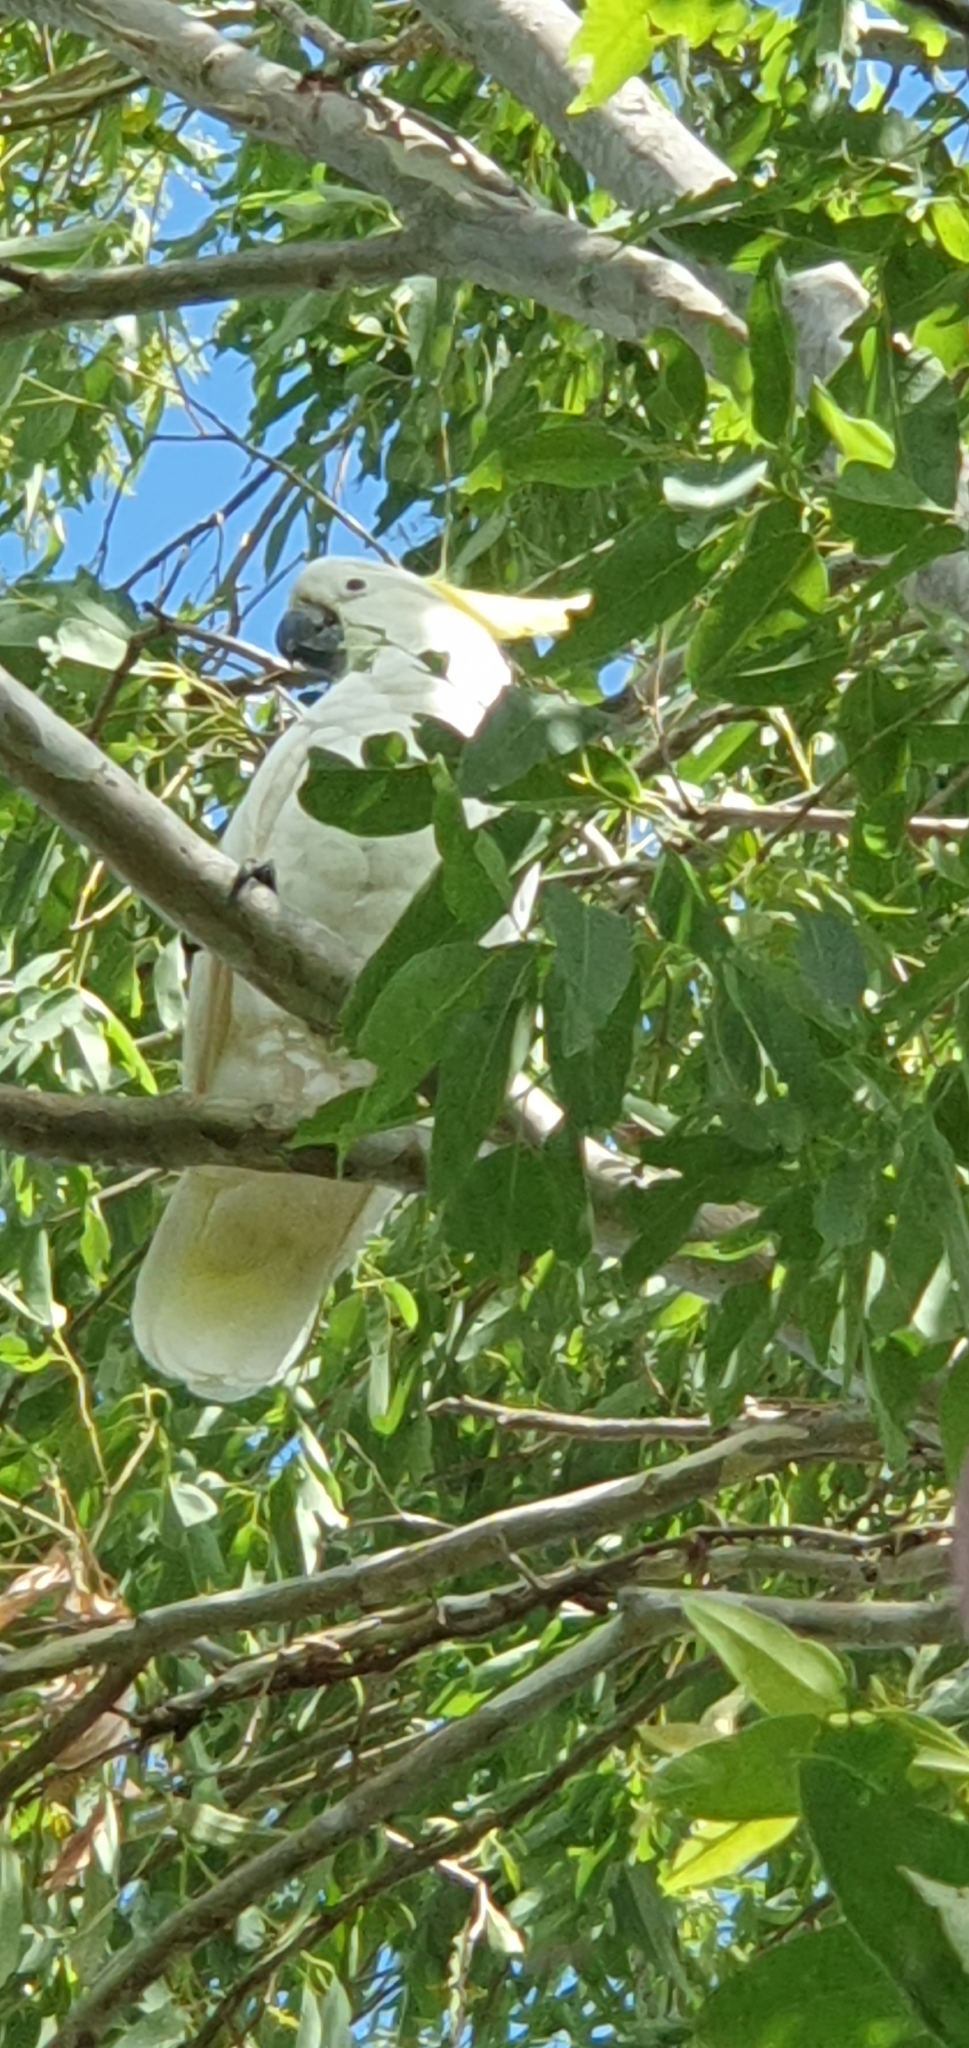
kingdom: Animalia
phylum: Chordata
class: Aves
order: Psittaciformes
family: Psittacidae
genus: Cacatua
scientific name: Cacatua galerita
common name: Sulphur-crested cockatoo
